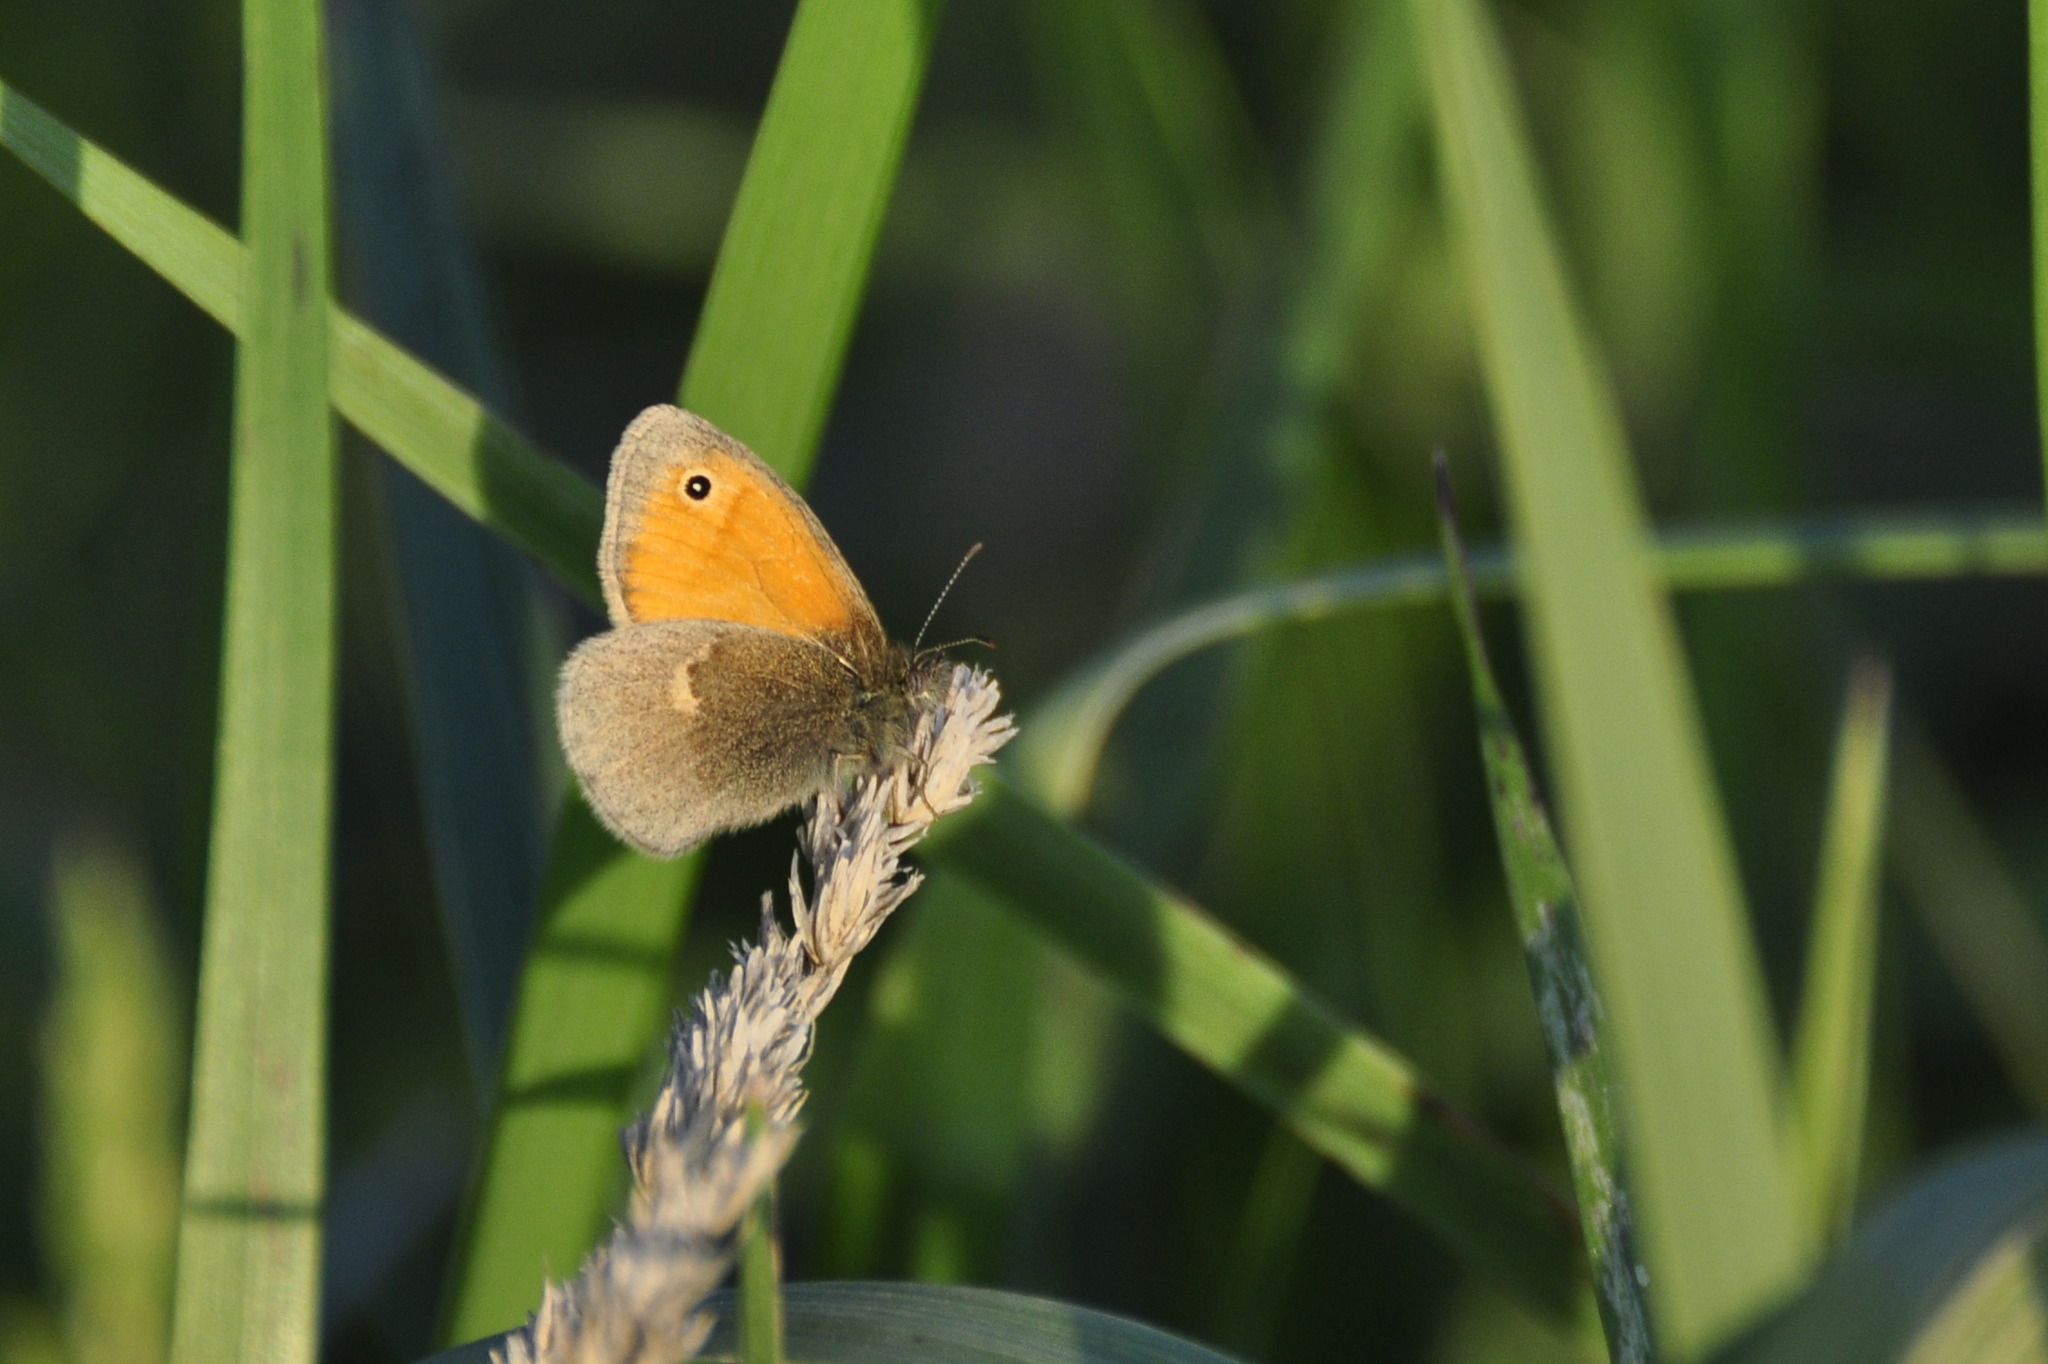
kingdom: Animalia
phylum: Arthropoda
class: Insecta
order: Lepidoptera
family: Nymphalidae
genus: Coenonympha
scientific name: Coenonympha pamphilus
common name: Small heath
